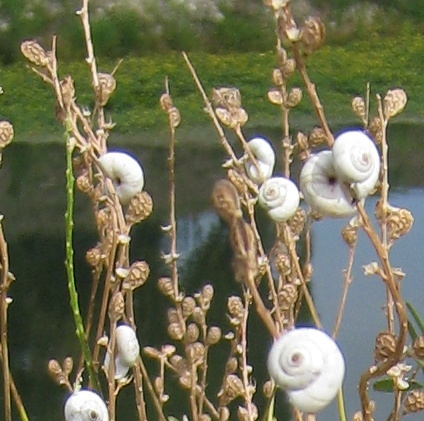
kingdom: Animalia
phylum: Mollusca
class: Gastropoda
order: Stylommatophora
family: Geomitridae
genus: Xeropicta
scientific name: Xeropicta derbentina
